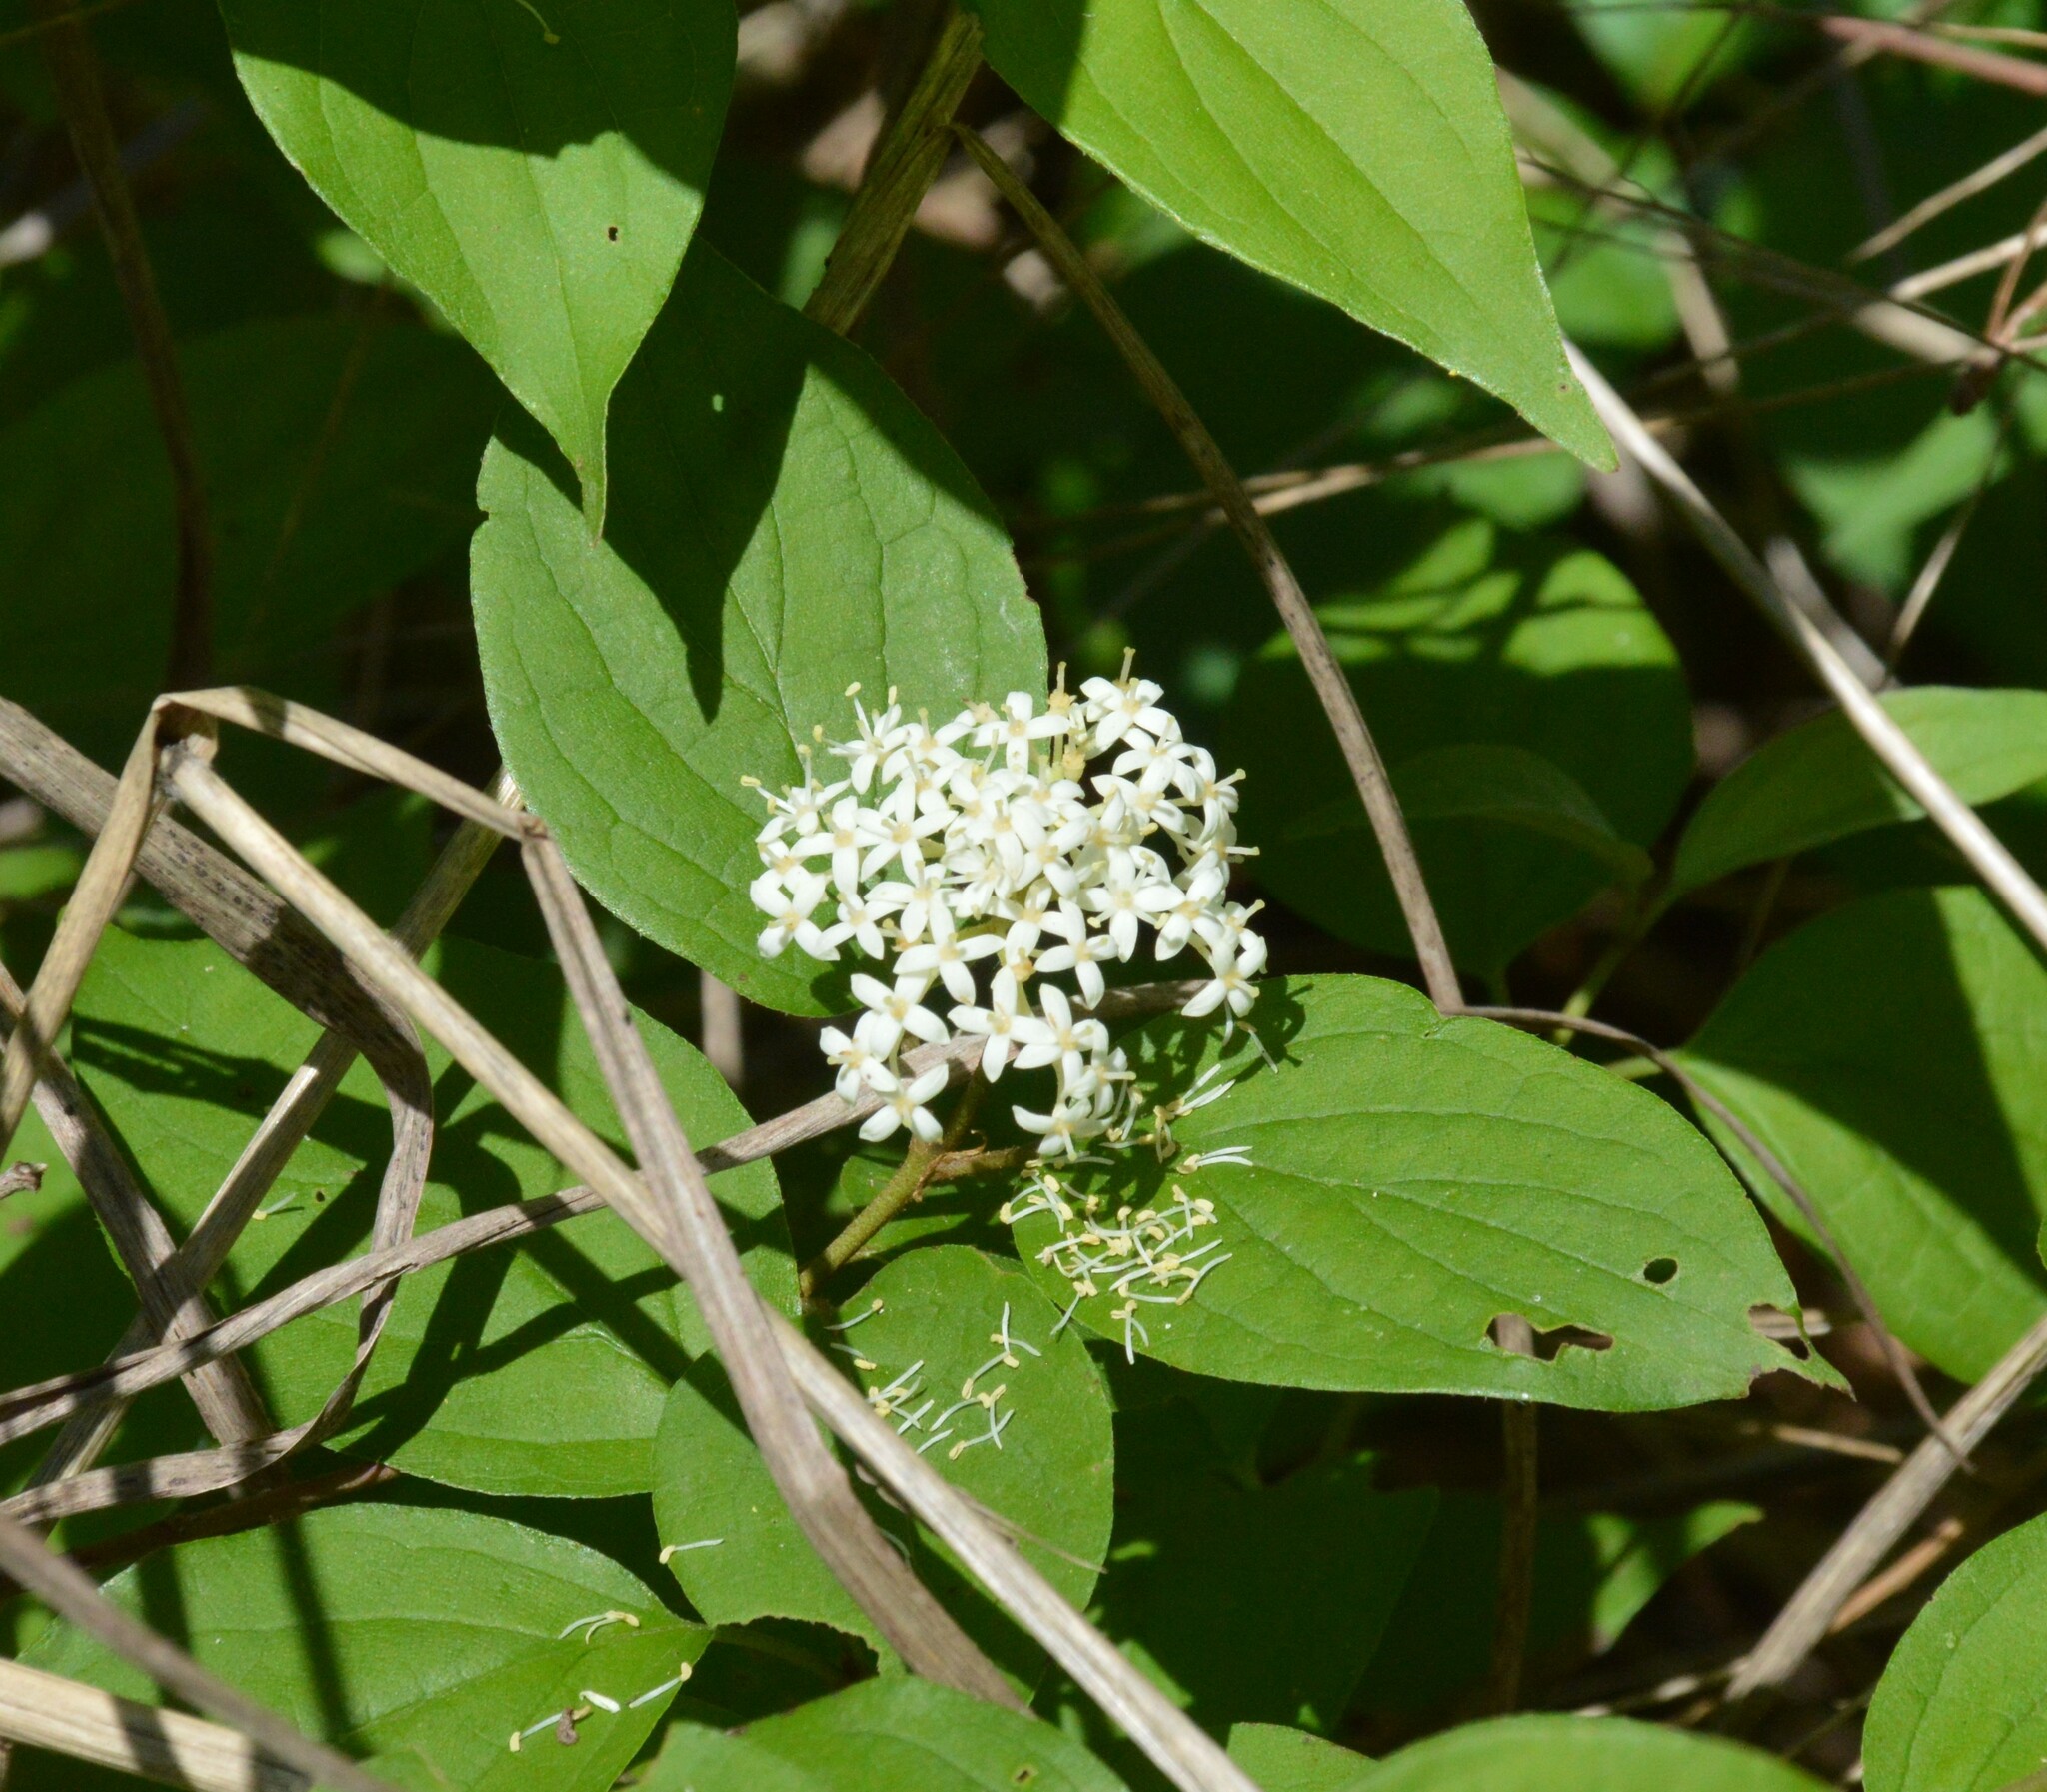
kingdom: Plantae
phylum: Tracheophyta
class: Magnoliopsida
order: Cornales
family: Cornaceae
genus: Cornus
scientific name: Cornus drummondii
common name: Rough-leaf dogwood
